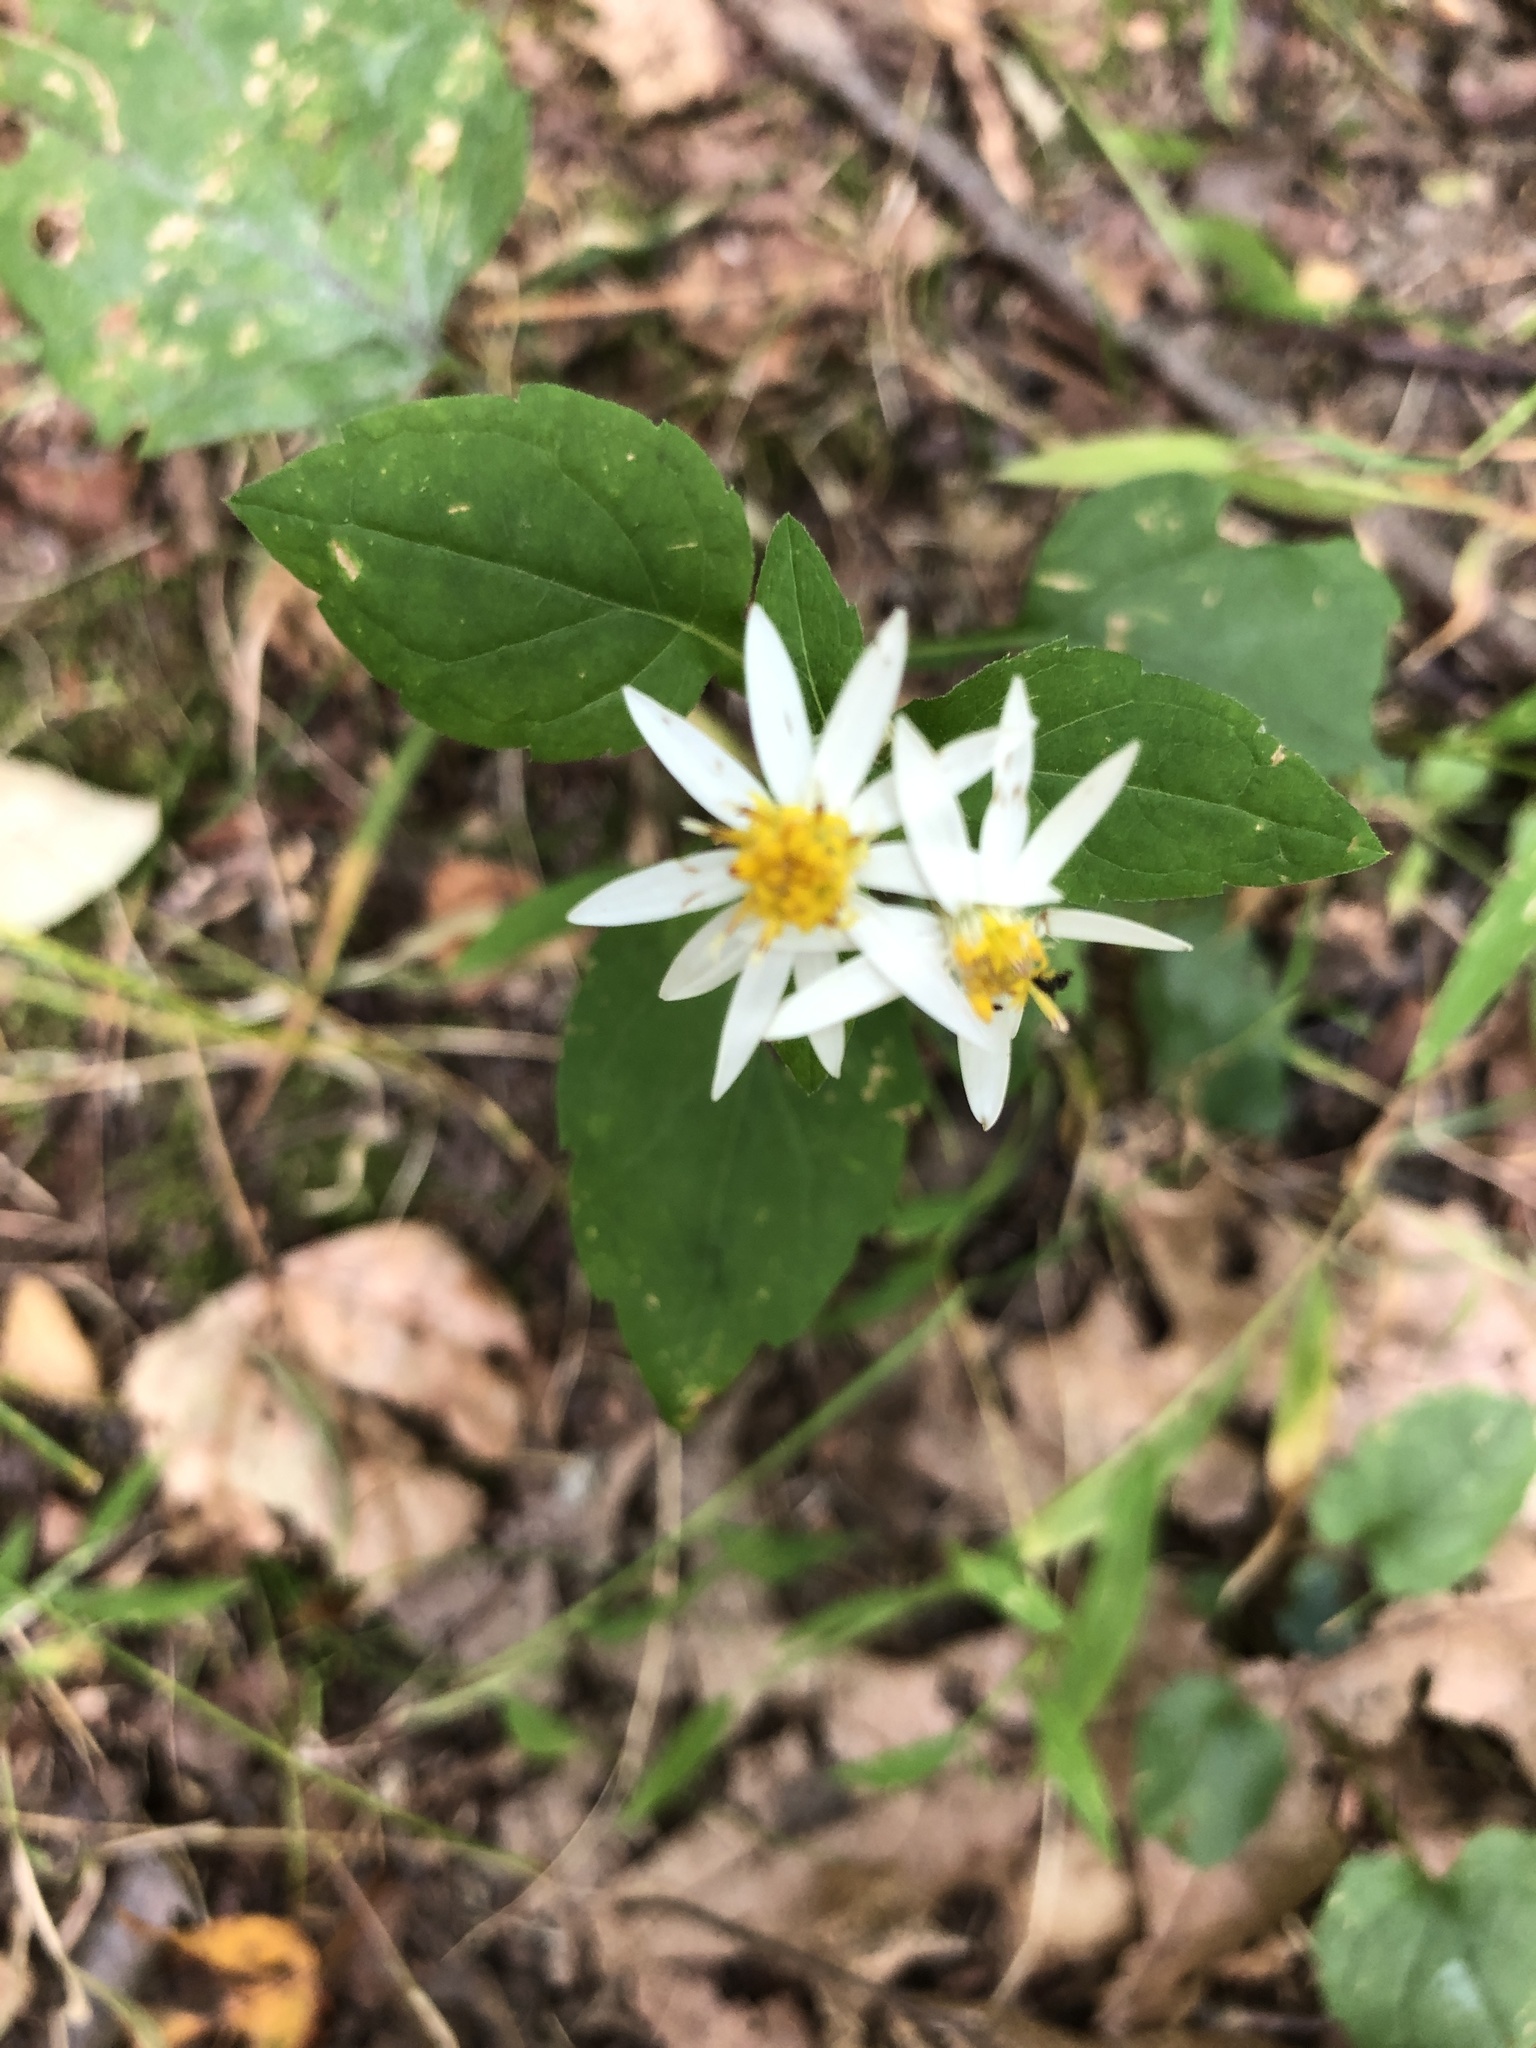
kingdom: Plantae
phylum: Tracheophyta
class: Magnoliopsida
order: Asterales
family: Asteraceae
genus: Eurybia
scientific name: Eurybia divaricata
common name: White wood aster
